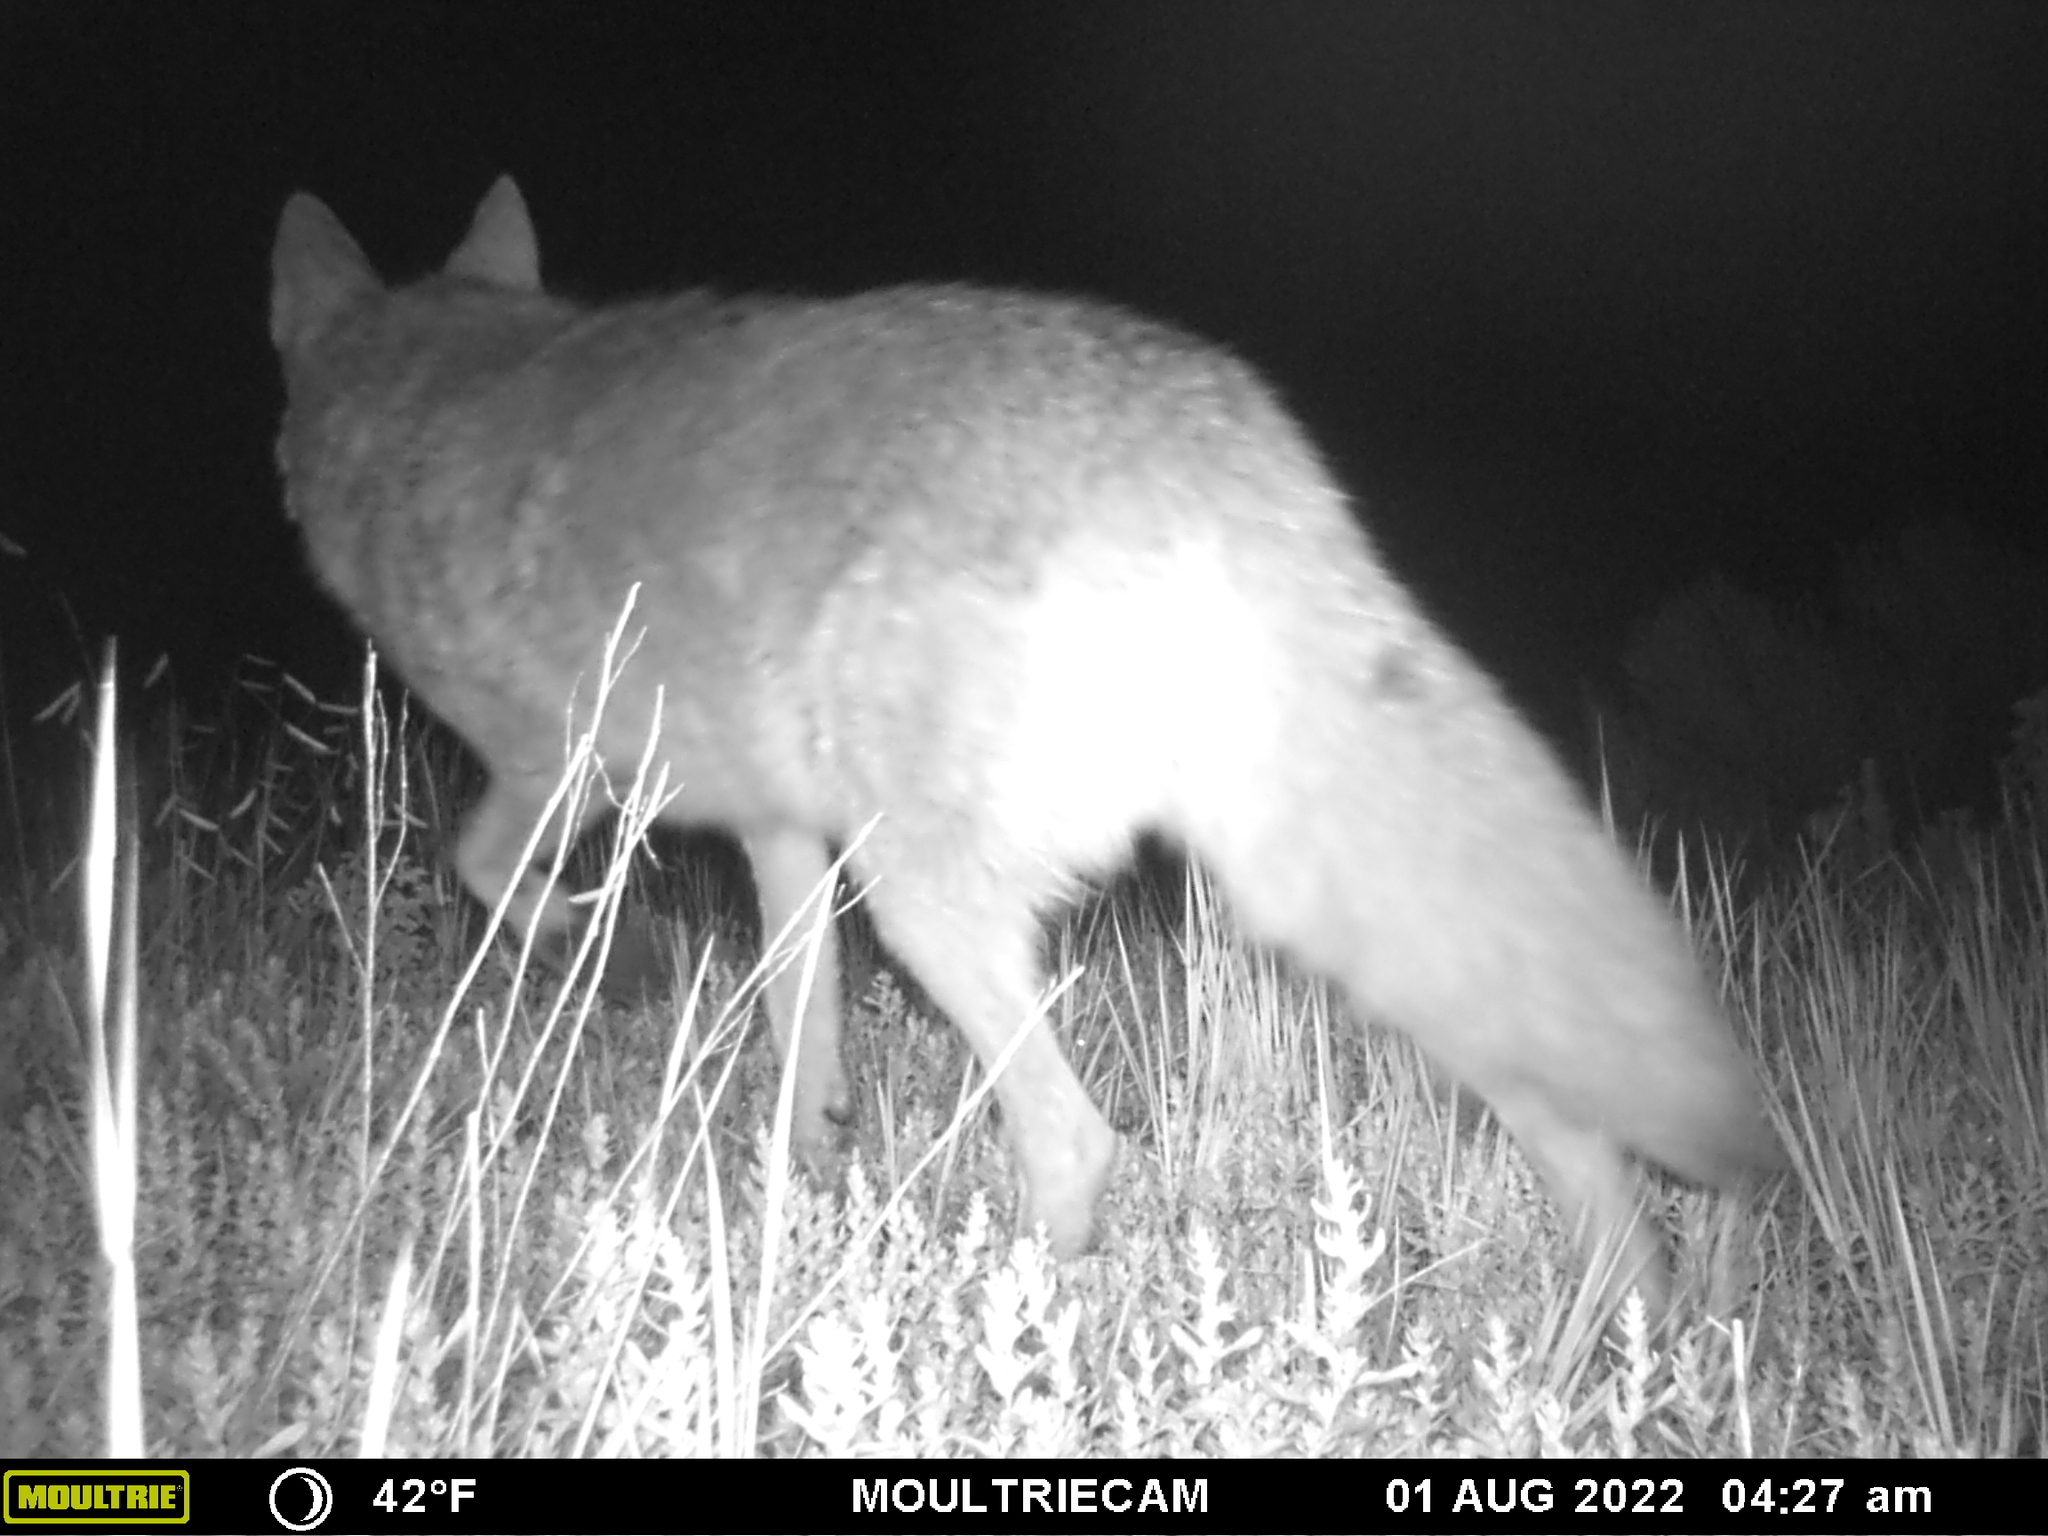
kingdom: Animalia
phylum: Chordata
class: Mammalia
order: Carnivora
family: Canidae
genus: Canis
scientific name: Canis latrans
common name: Coyote
